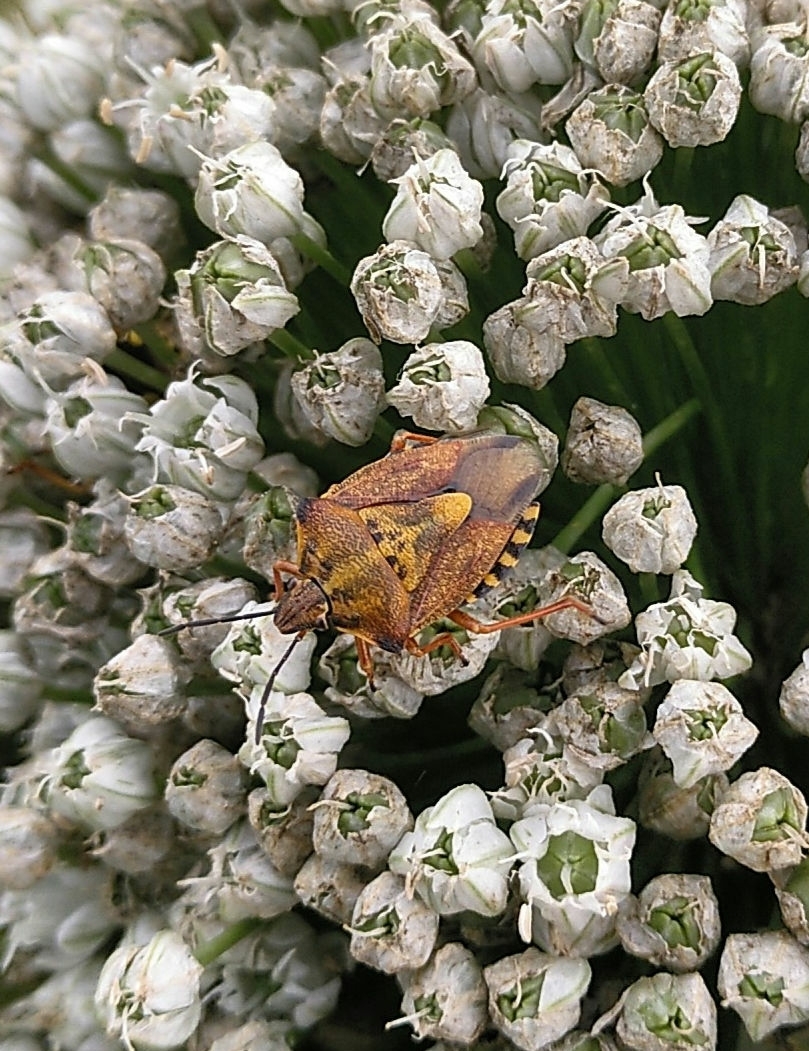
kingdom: Animalia
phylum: Arthropoda
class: Insecta
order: Hemiptera
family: Pentatomidae
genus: Carpocoris
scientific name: Carpocoris mediterraneus
